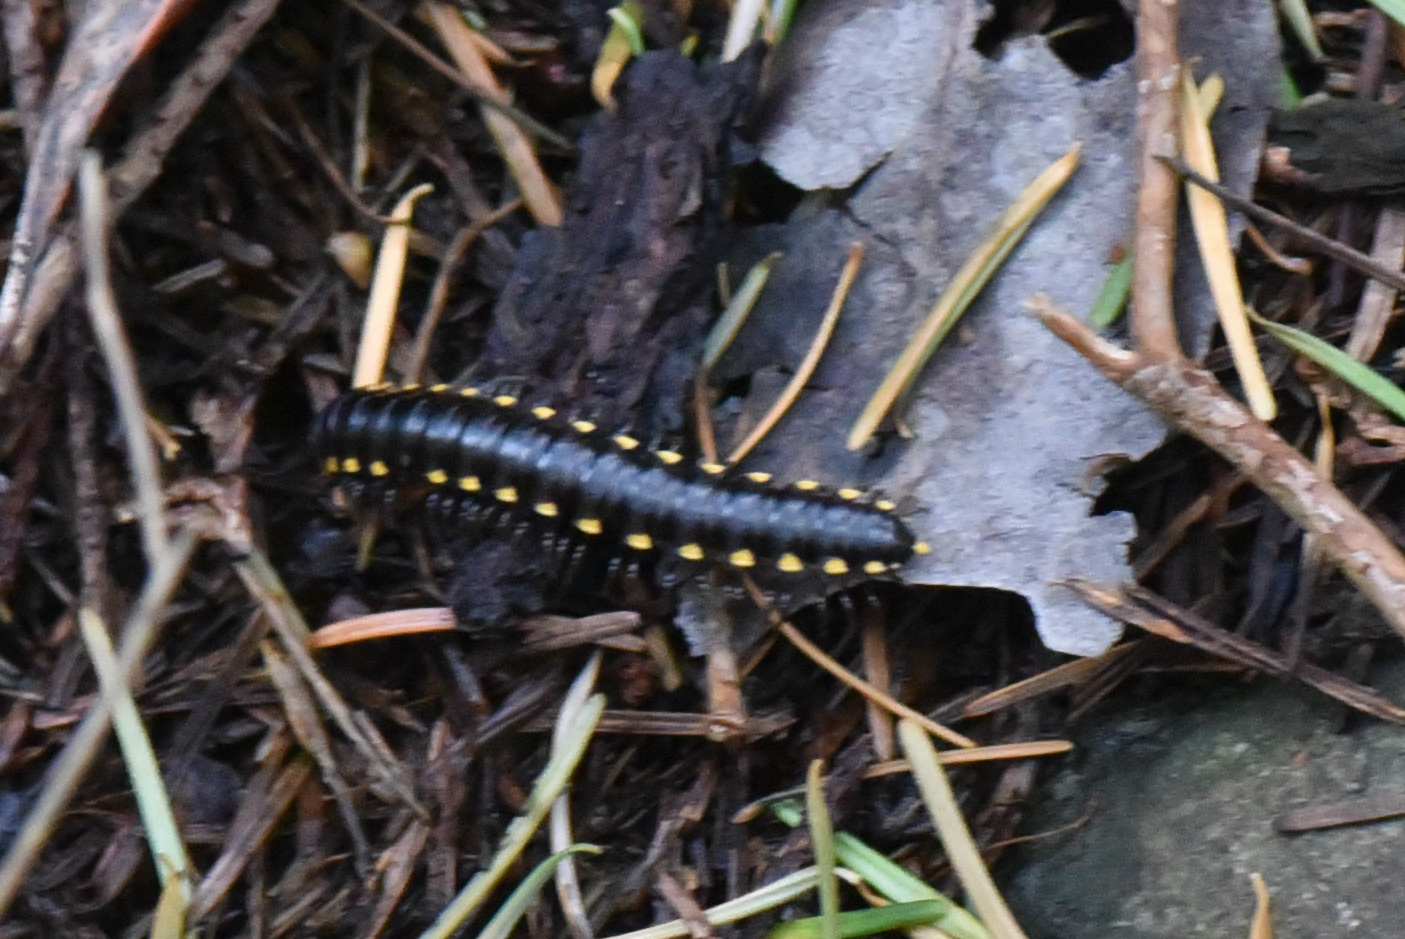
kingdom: Animalia
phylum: Arthropoda
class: Diplopoda
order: Polydesmida
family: Xystodesmidae
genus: Harpaphe
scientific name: Harpaphe haydeniana
